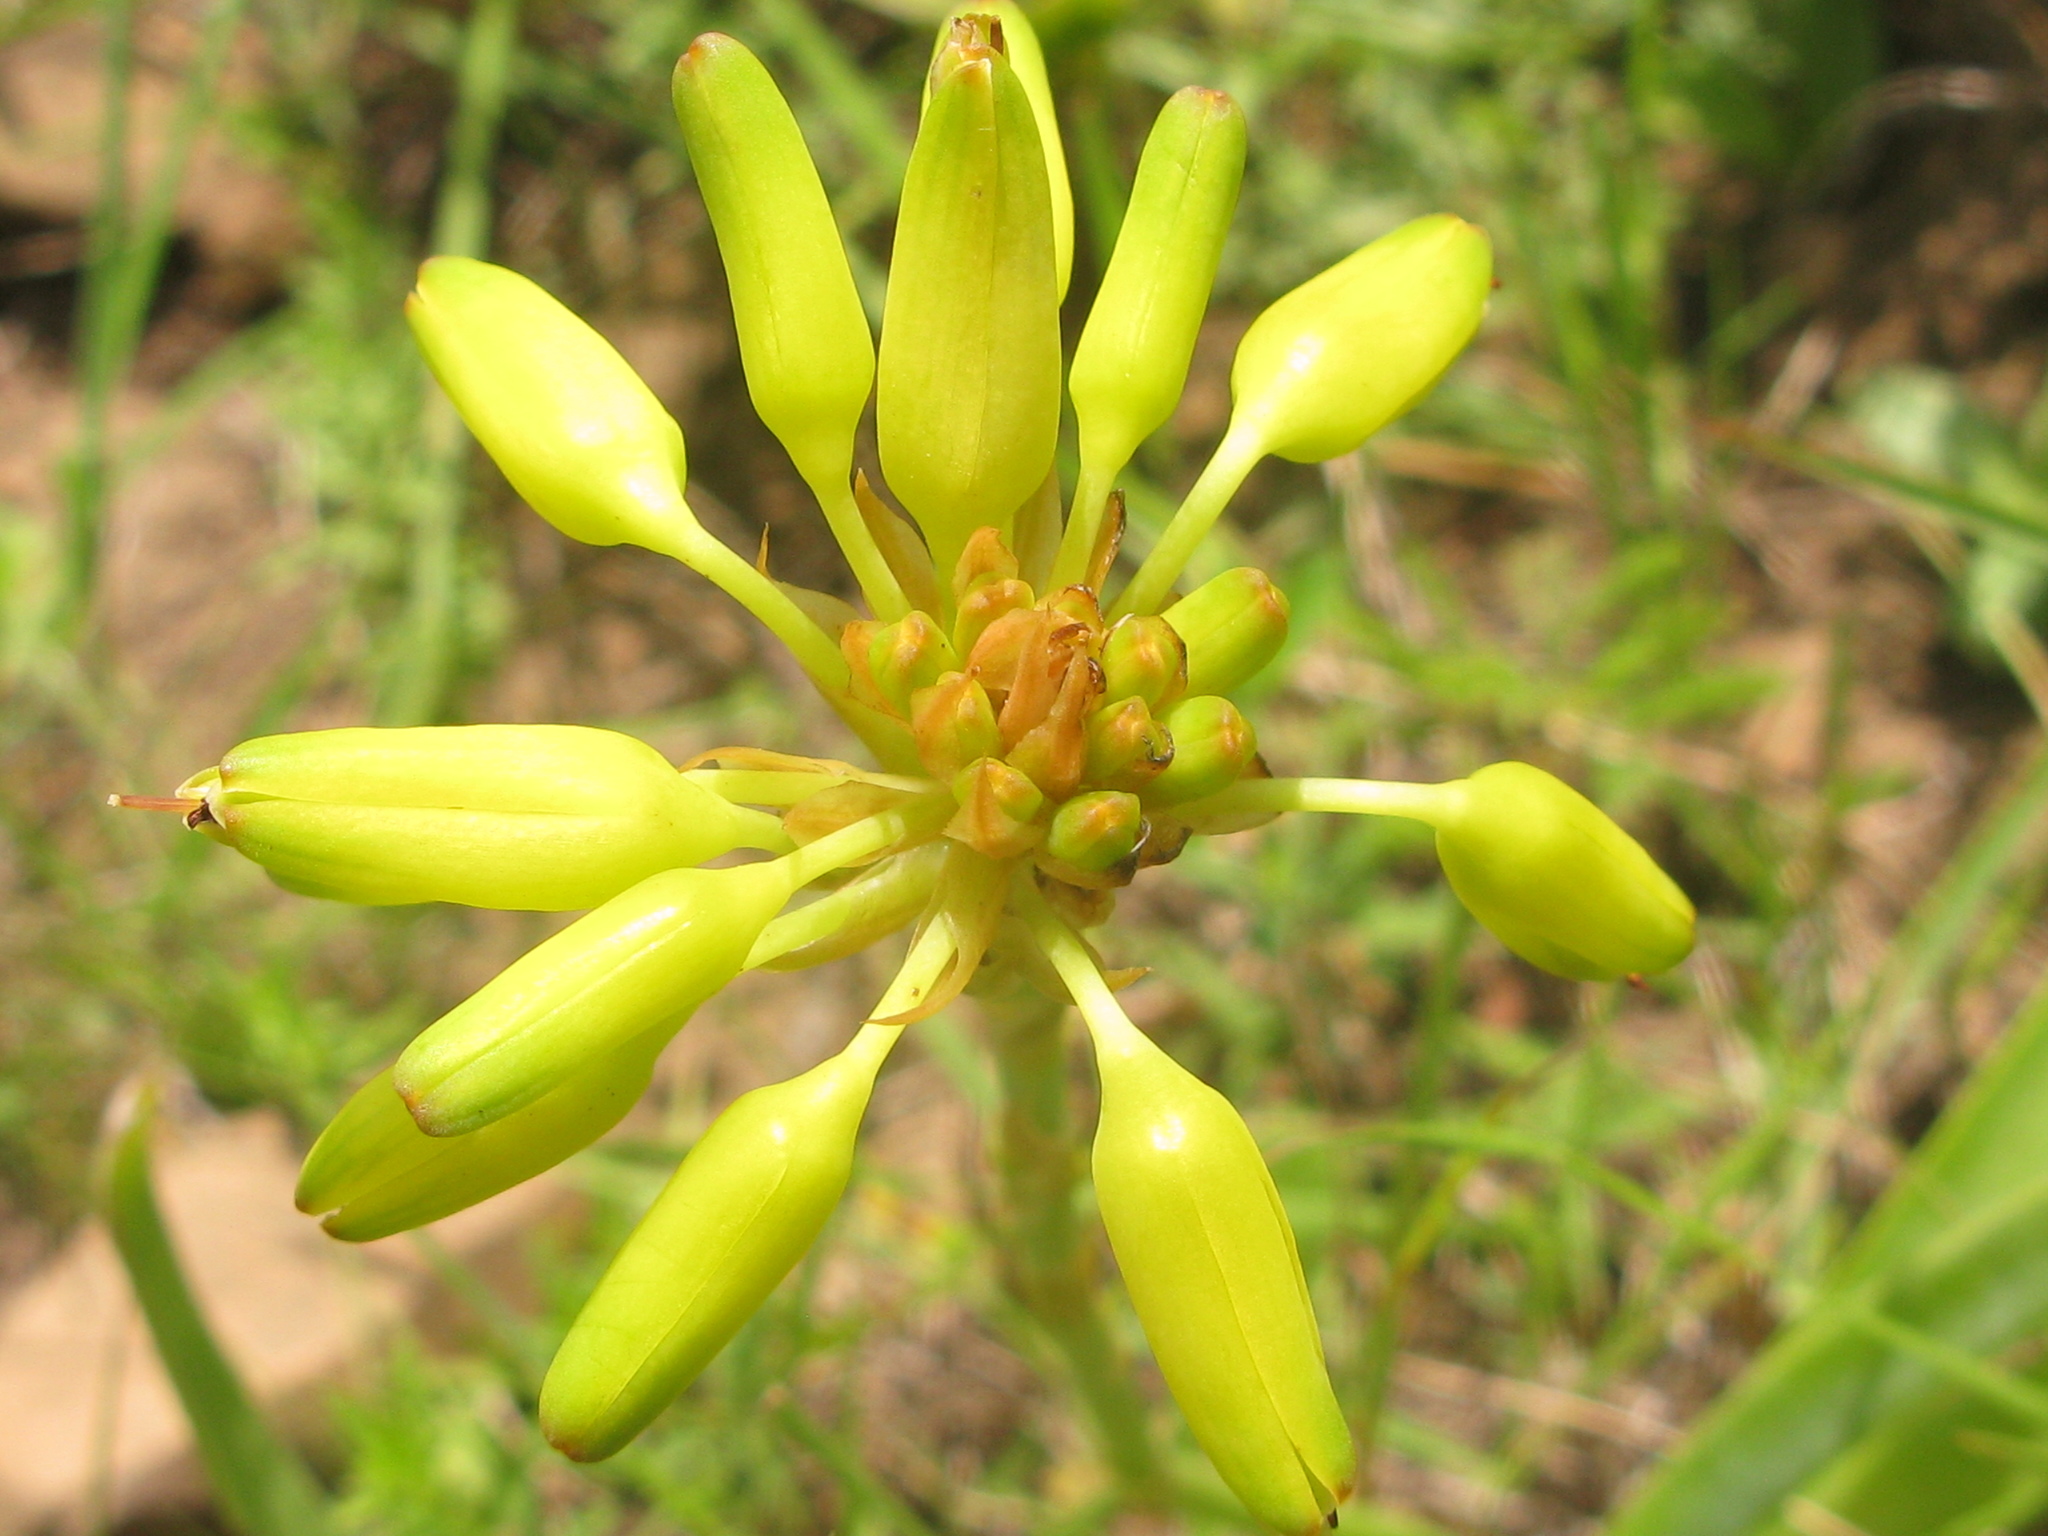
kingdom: Plantae
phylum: Tracheophyta
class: Liliopsida
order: Asparagales
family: Asphodelaceae
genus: Aloe
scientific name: Aloe linearifolia
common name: Dwarf yellow grass aloe
